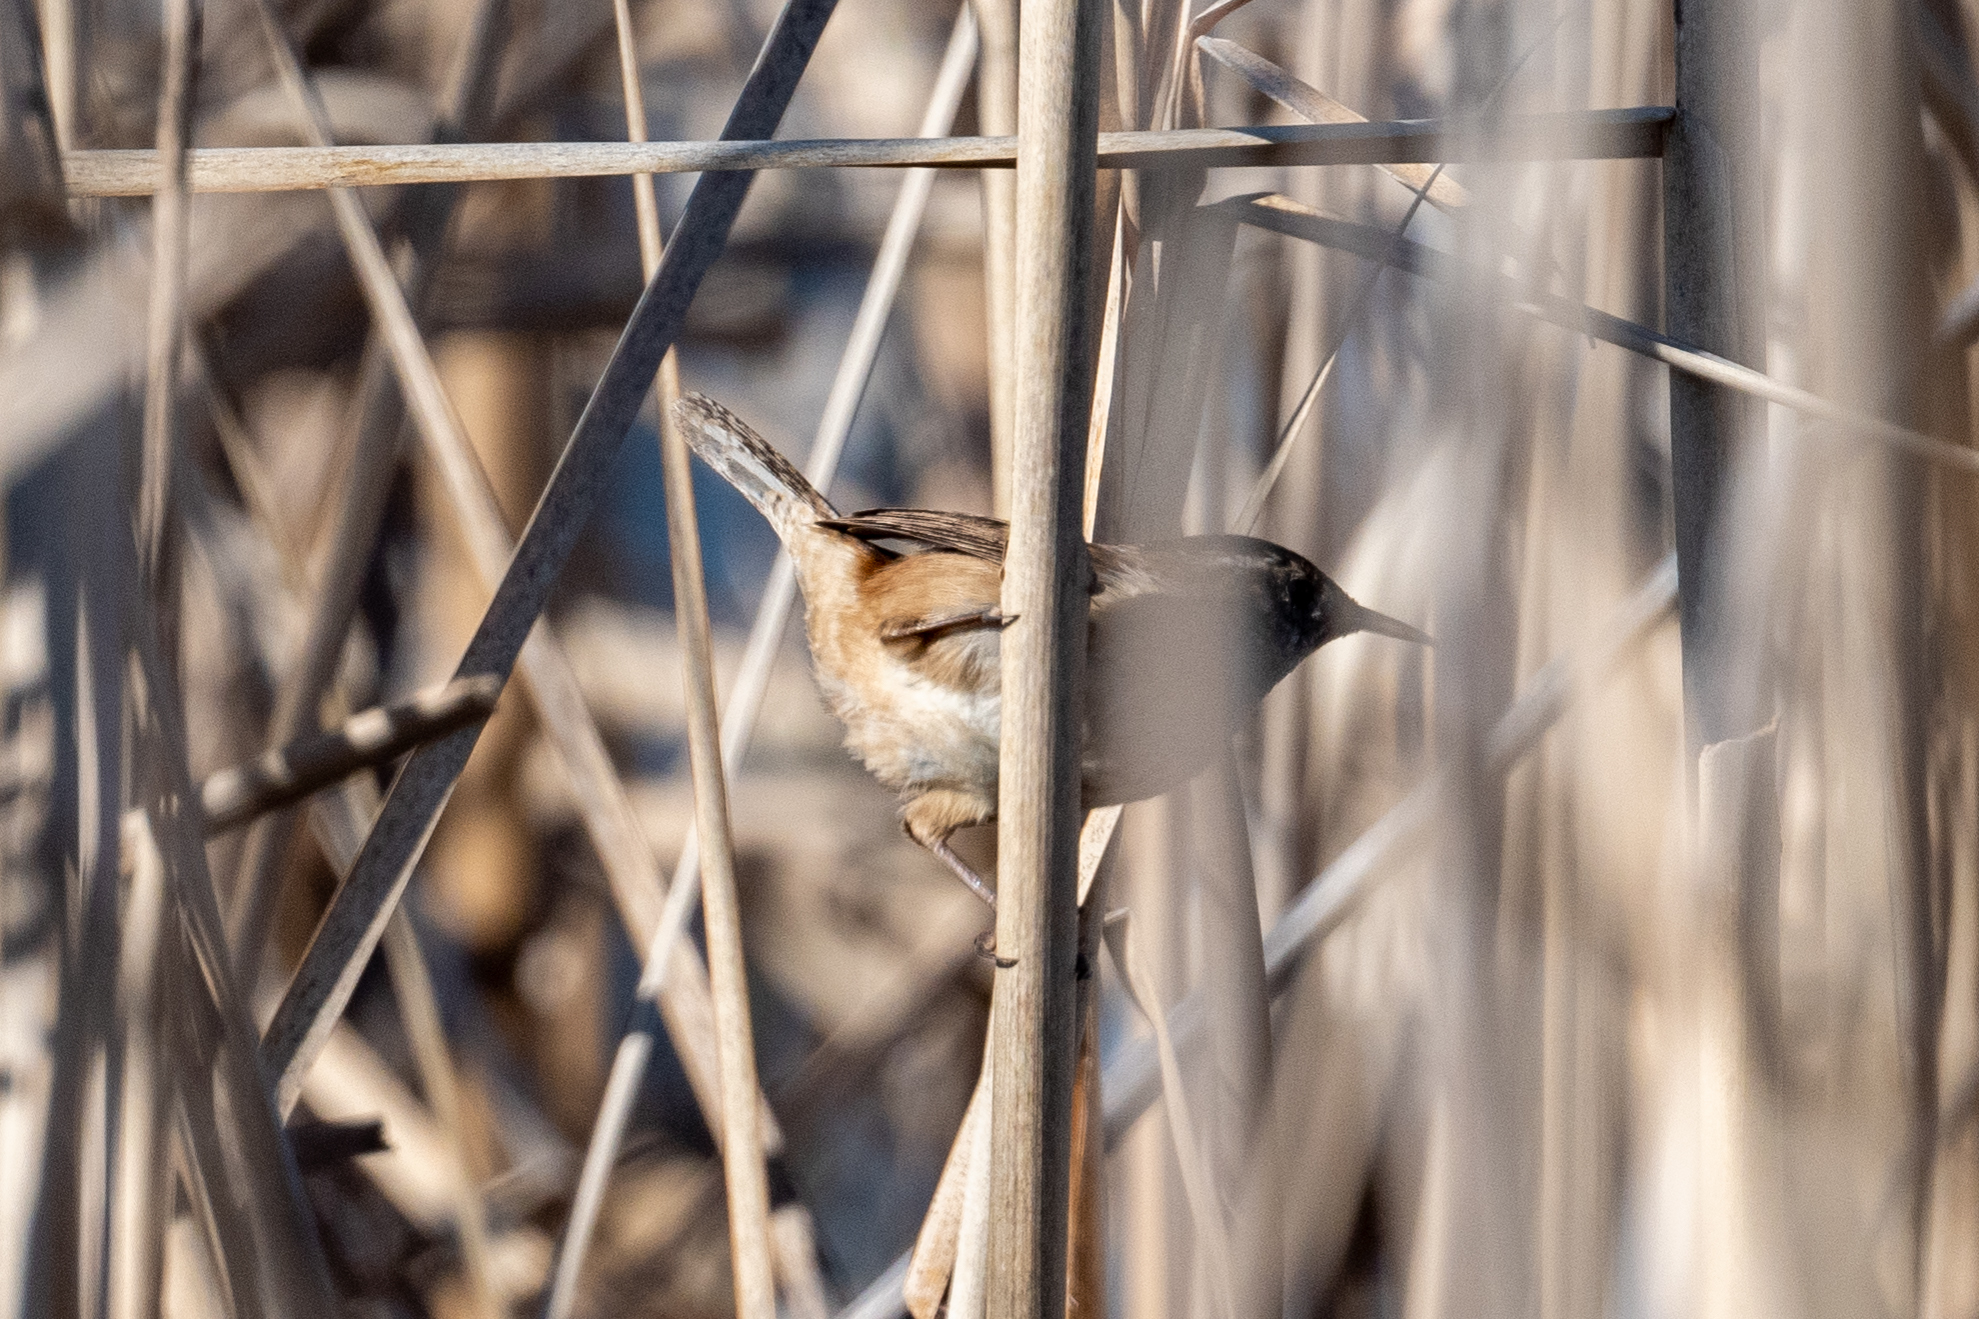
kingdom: Animalia
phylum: Chordata
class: Aves
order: Passeriformes
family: Troglodytidae
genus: Cistothorus
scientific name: Cistothorus palustris
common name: Marsh wren
